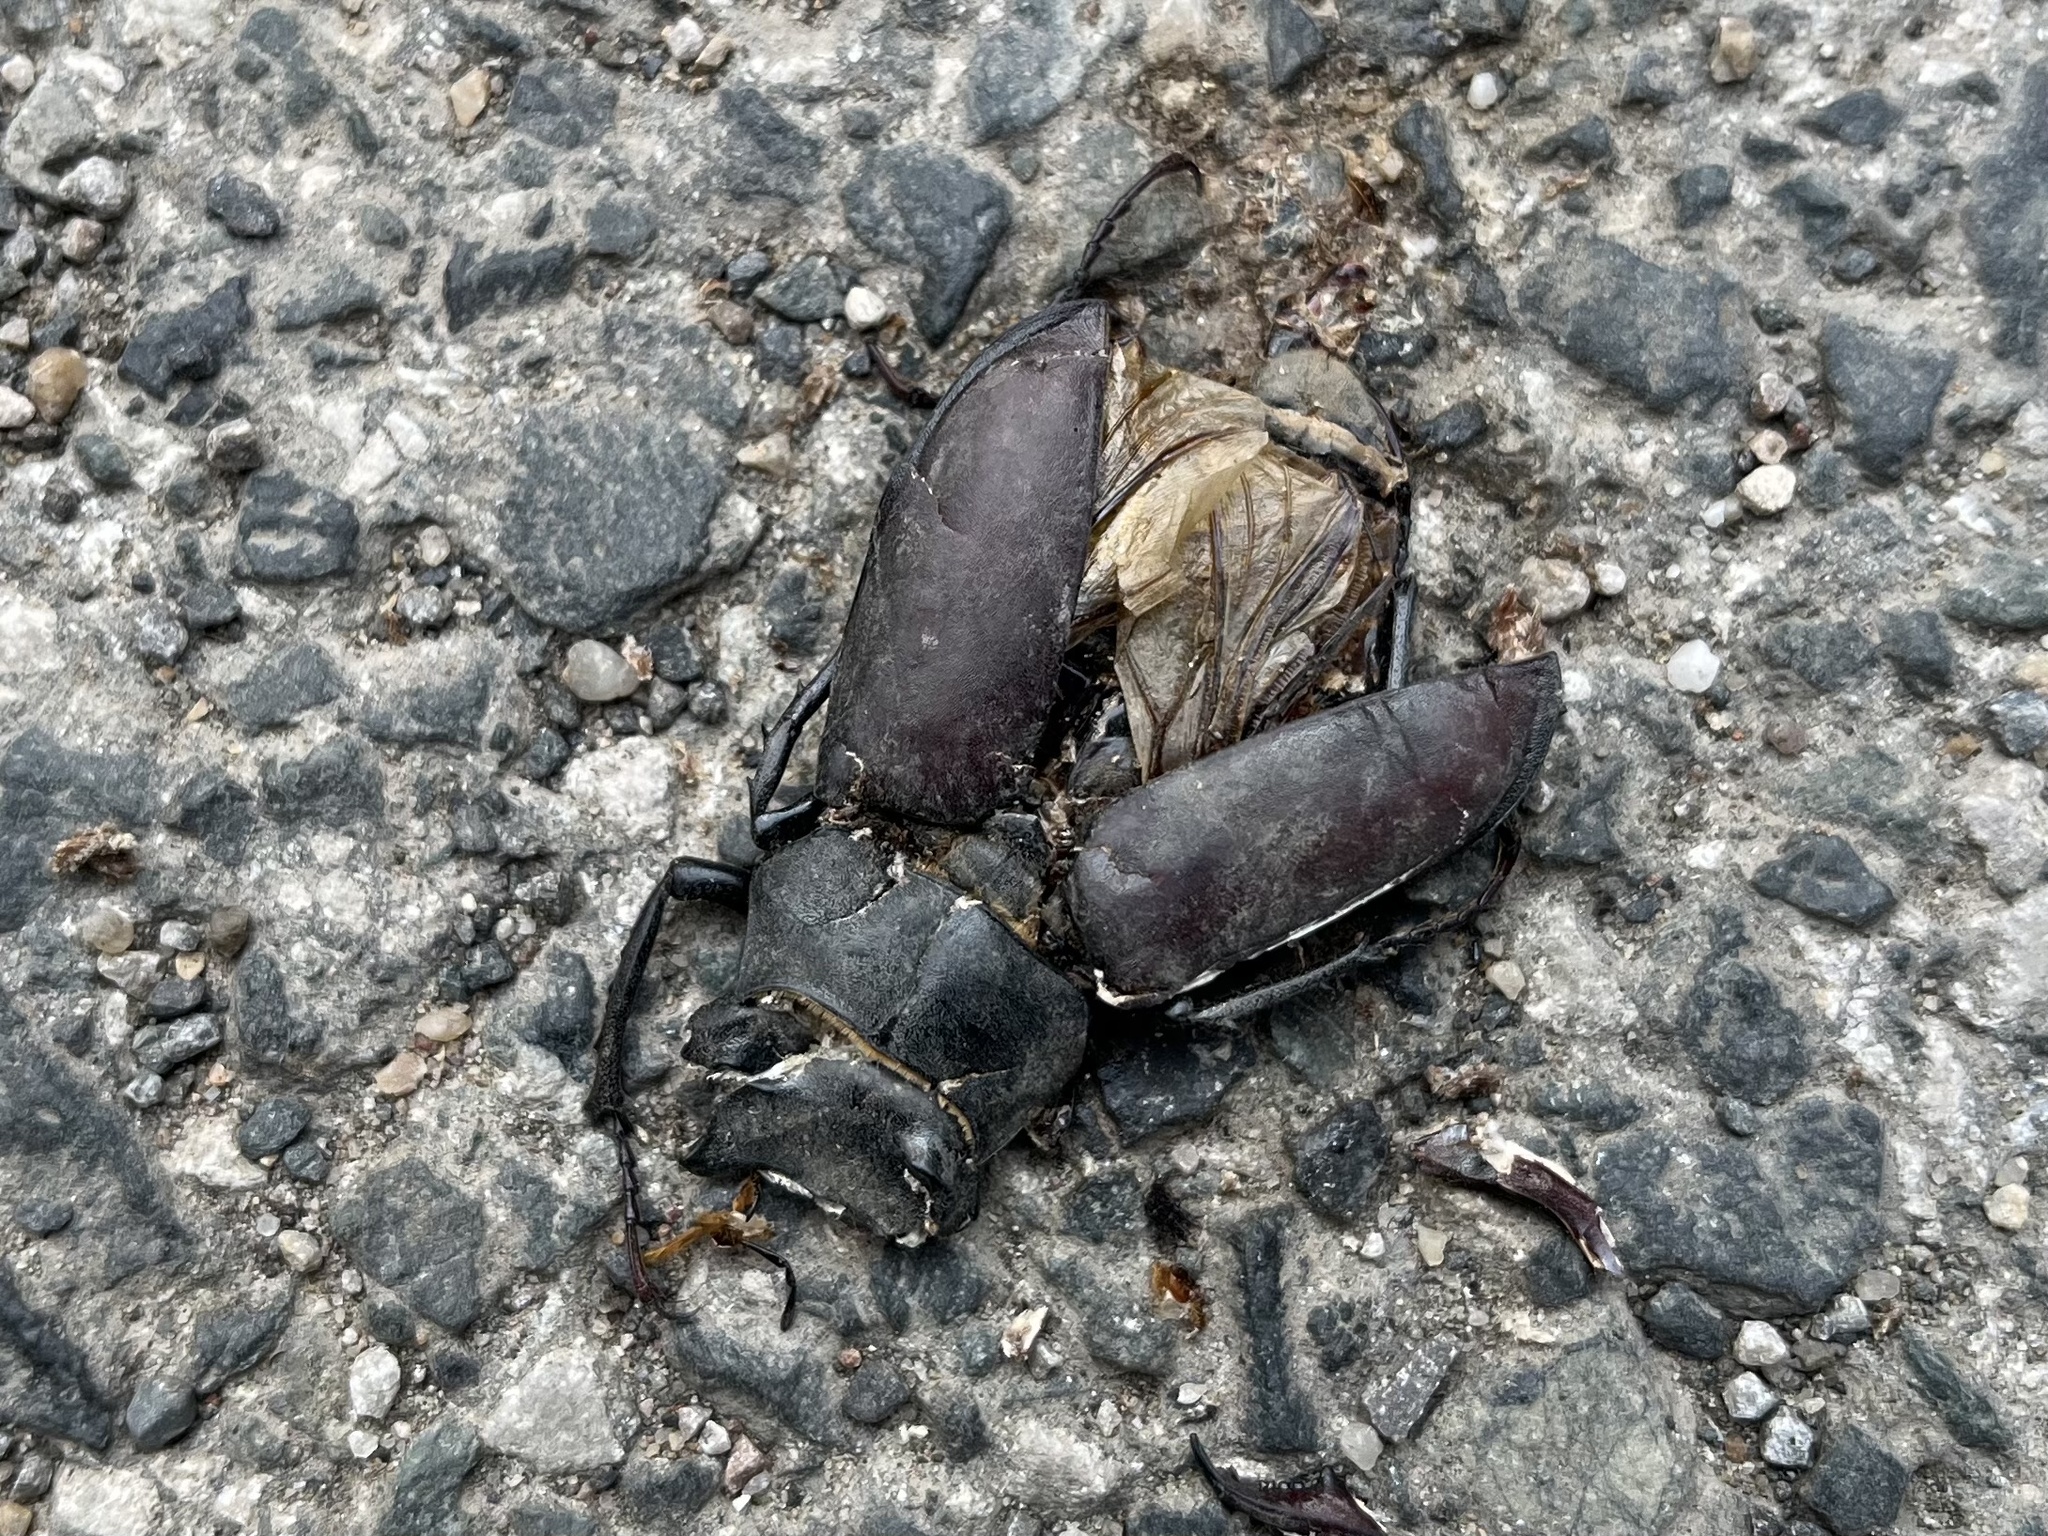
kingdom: Animalia
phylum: Arthropoda
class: Insecta
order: Coleoptera
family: Lucanidae
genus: Lucanus
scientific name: Lucanus cervus
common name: Stag beetle
